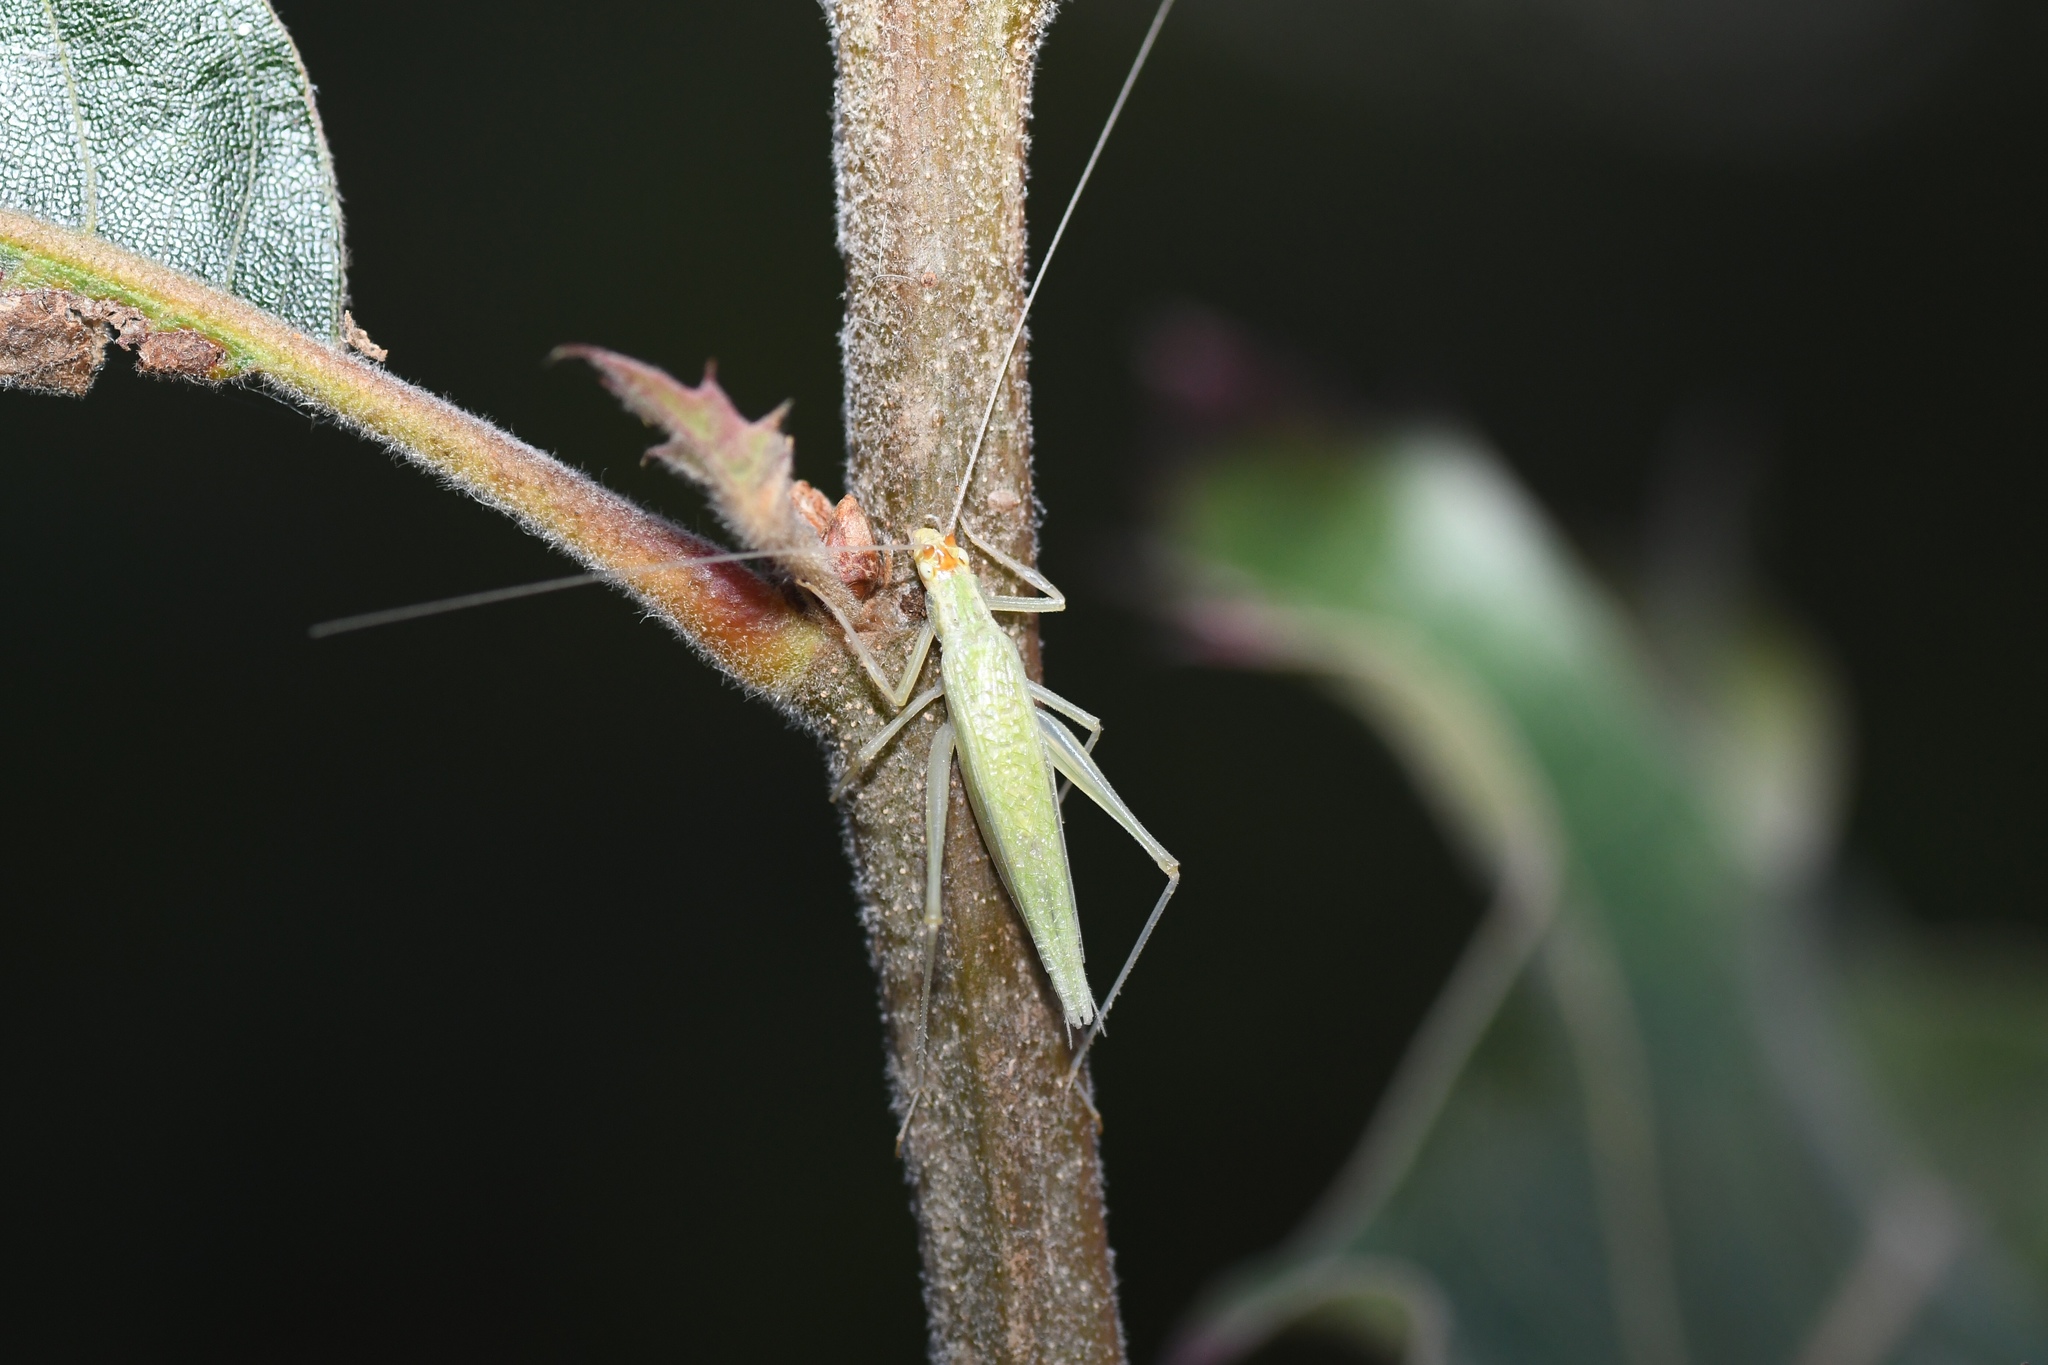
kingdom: Animalia
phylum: Arthropoda
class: Insecta
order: Orthoptera
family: Gryllidae
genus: Oecanthus
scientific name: Oecanthus fultoni
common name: Snowy tree cricket
